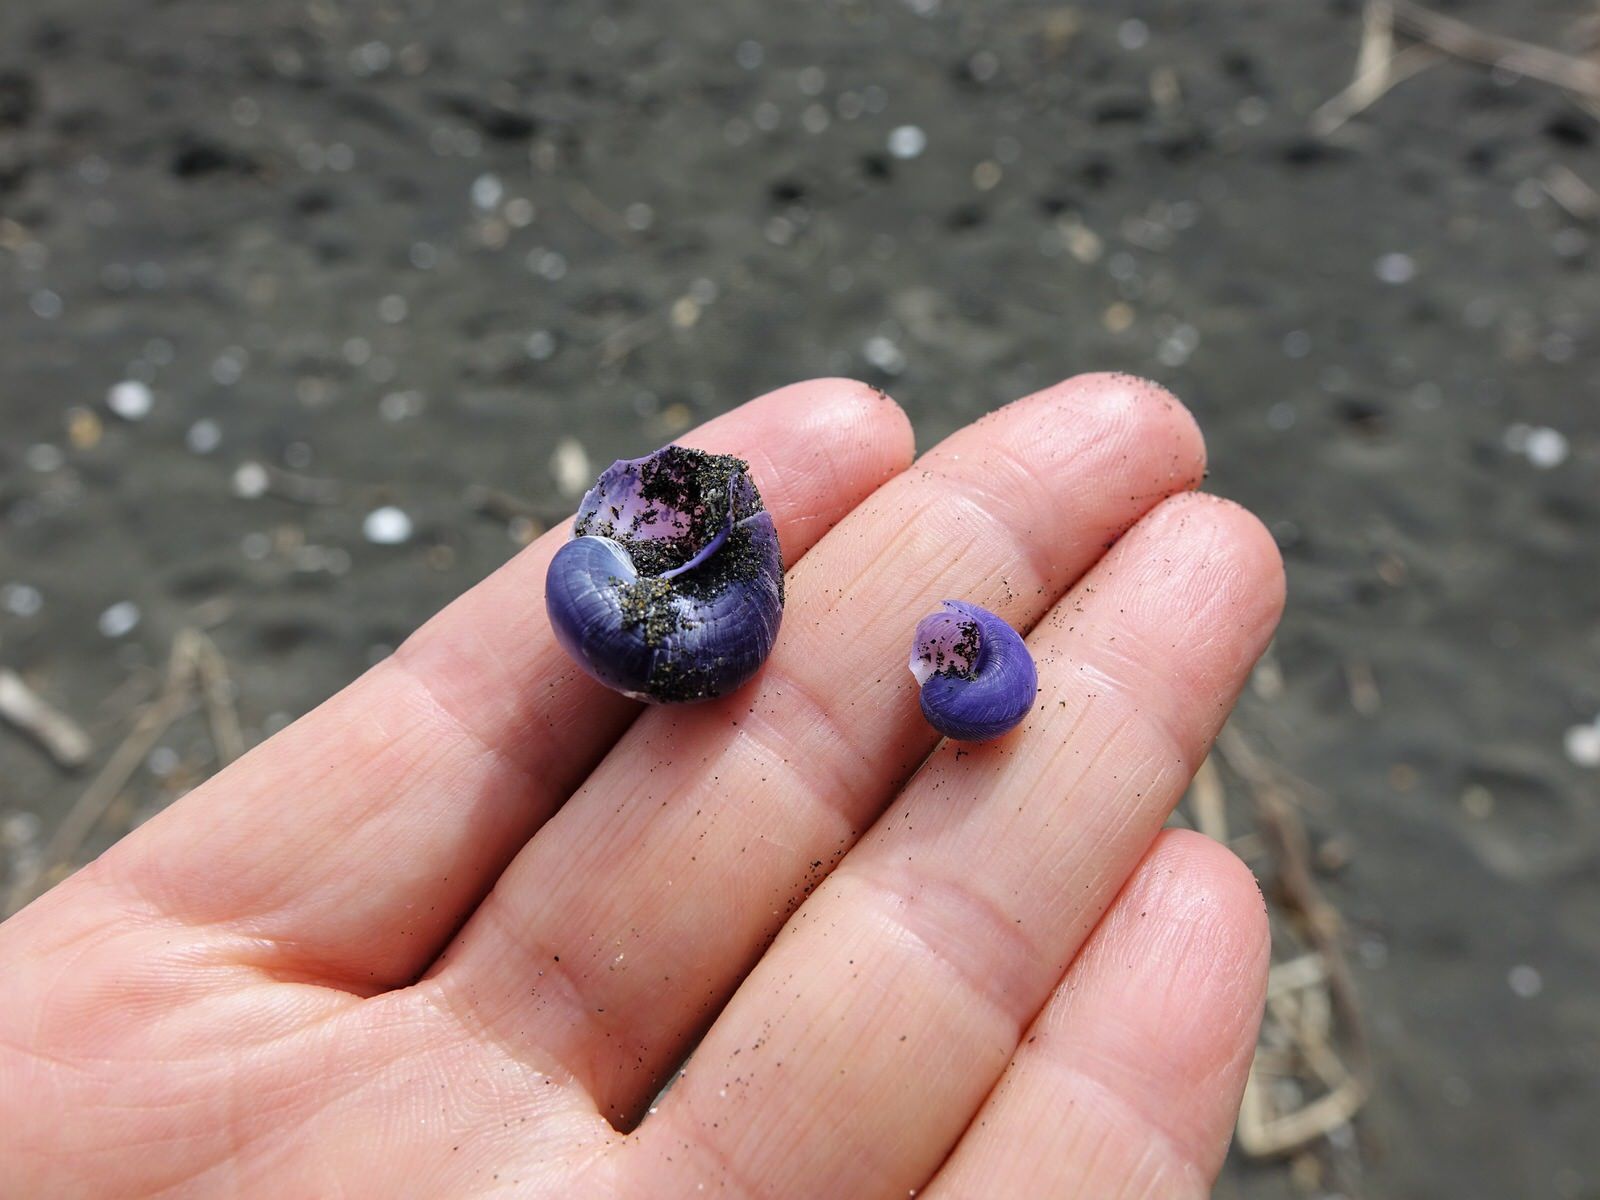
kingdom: Animalia
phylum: Mollusca
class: Gastropoda
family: Epitoniidae
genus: Janthina
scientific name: Janthina janthina
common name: Common janthina
